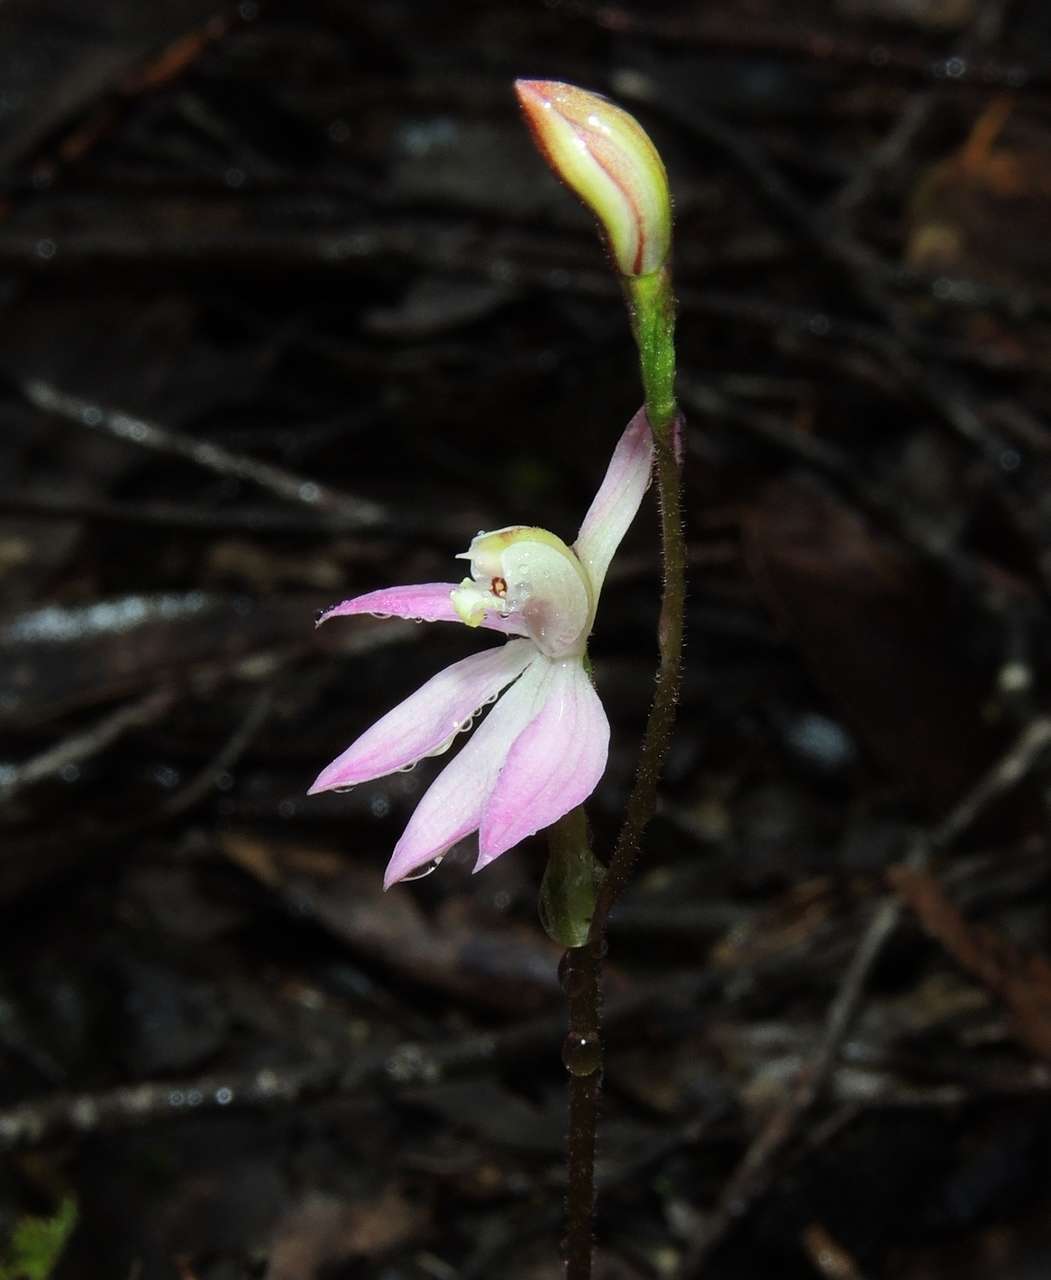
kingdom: Plantae
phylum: Tracheophyta
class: Liliopsida
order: Asparagales
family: Orchidaceae
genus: Caladenia
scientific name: Caladenia carnea
